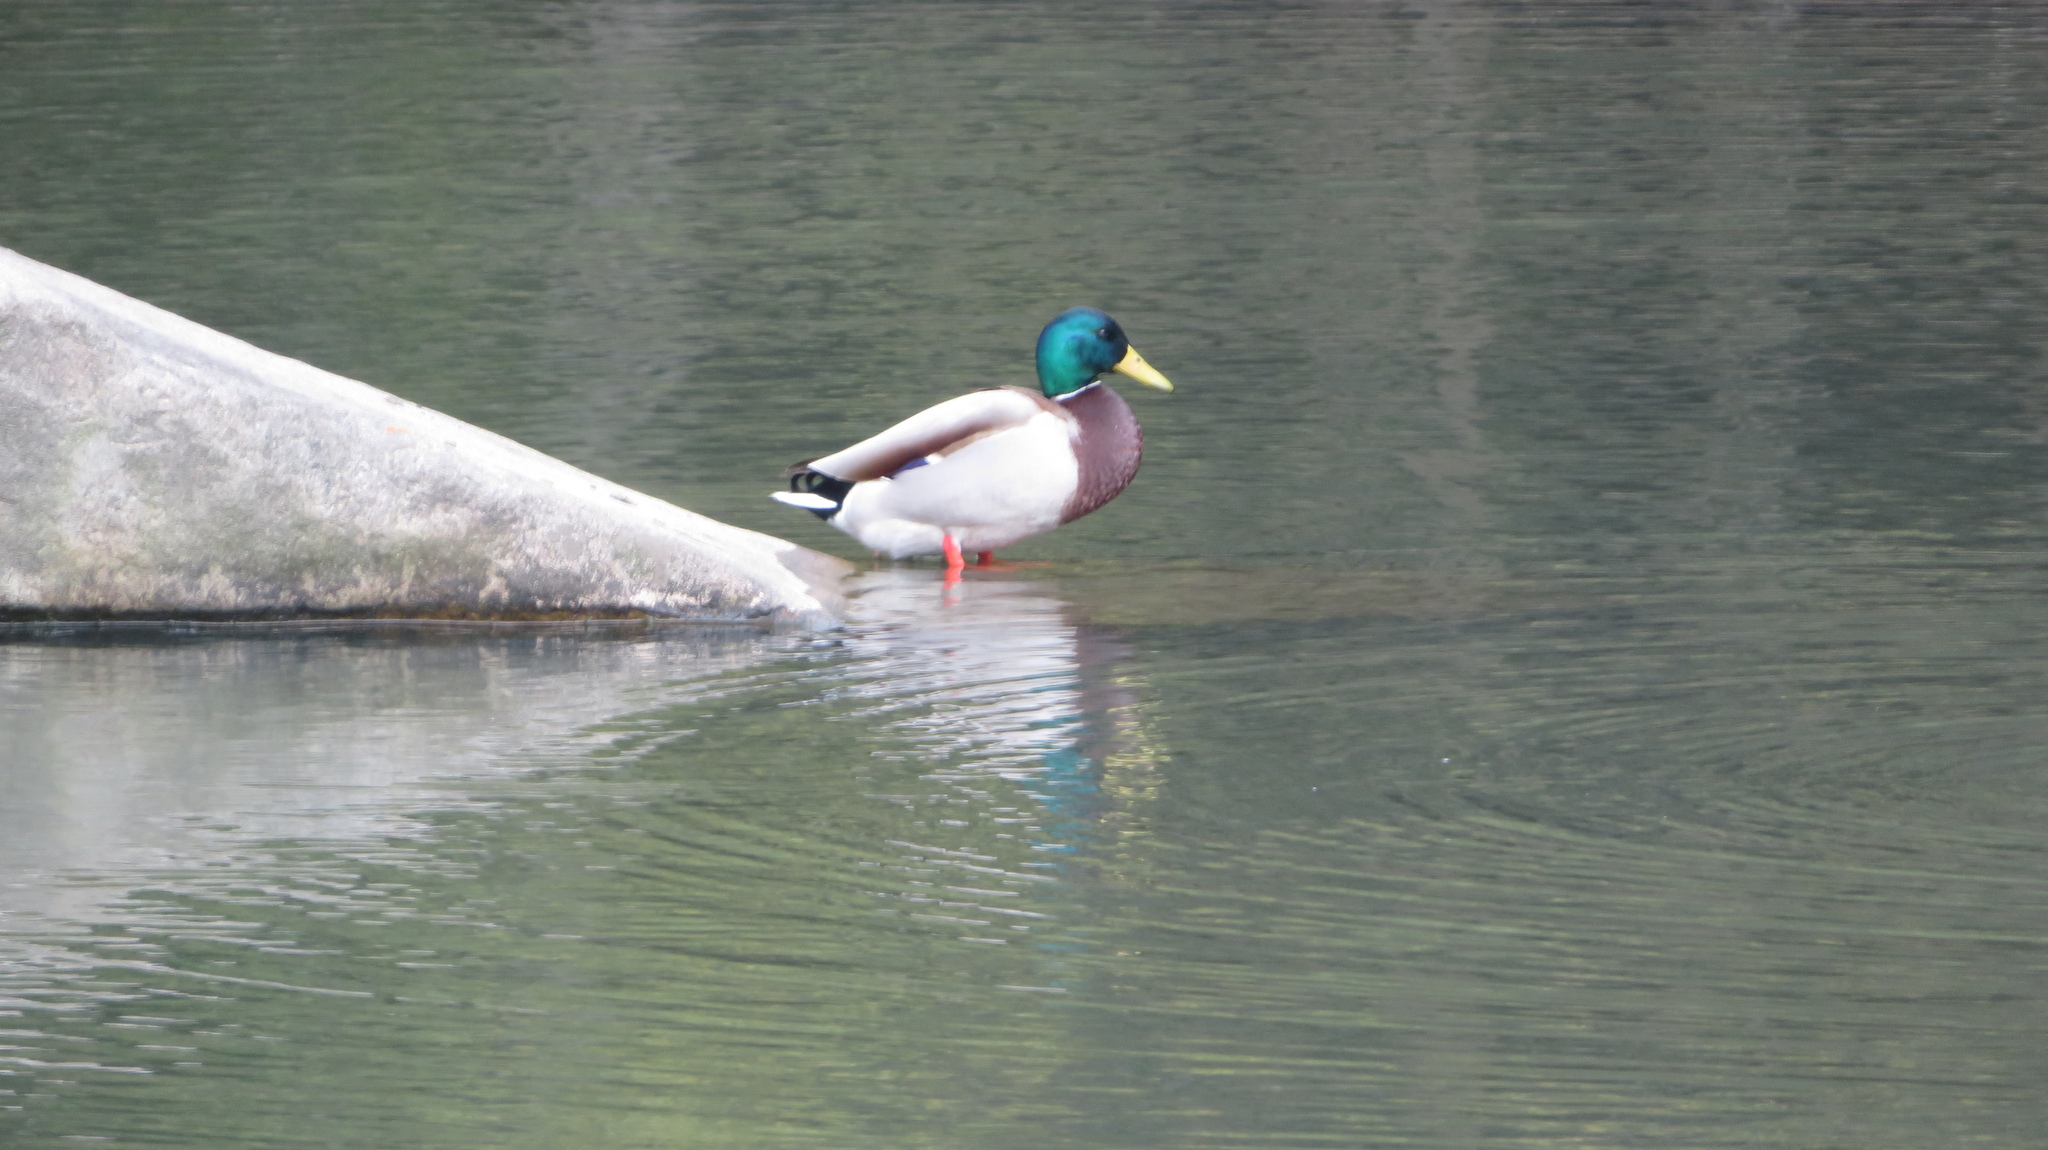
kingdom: Animalia
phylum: Chordata
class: Aves
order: Anseriformes
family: Anatidae
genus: Anas
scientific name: Anas platyrhynchos
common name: Mallard
